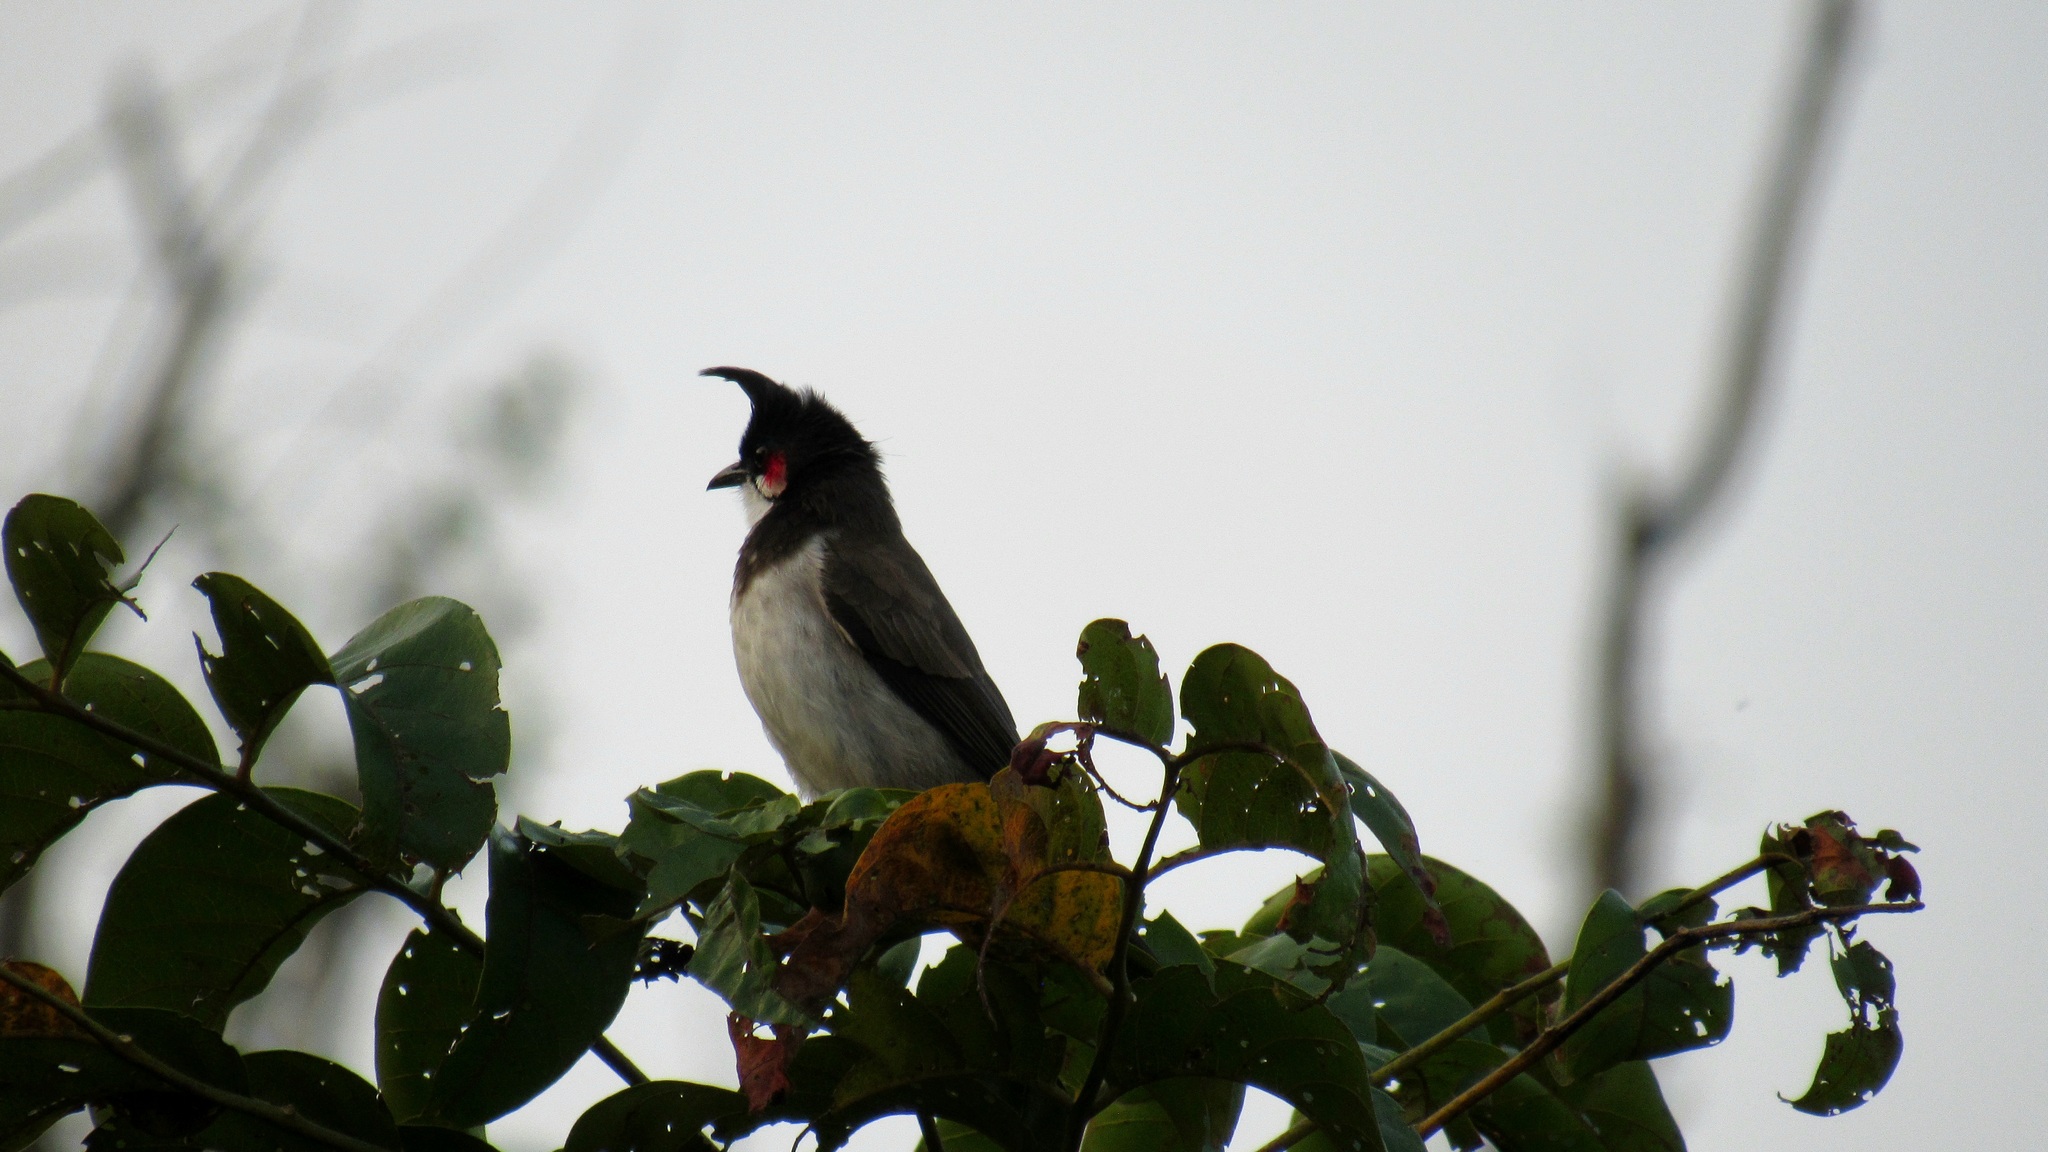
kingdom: Animalia
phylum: Chordata
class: Aves
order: Passeriformes
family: Pycnonotidae
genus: Pycnonotus
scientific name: Pycnonotus jocosus
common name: Red-whiskered bulbul
